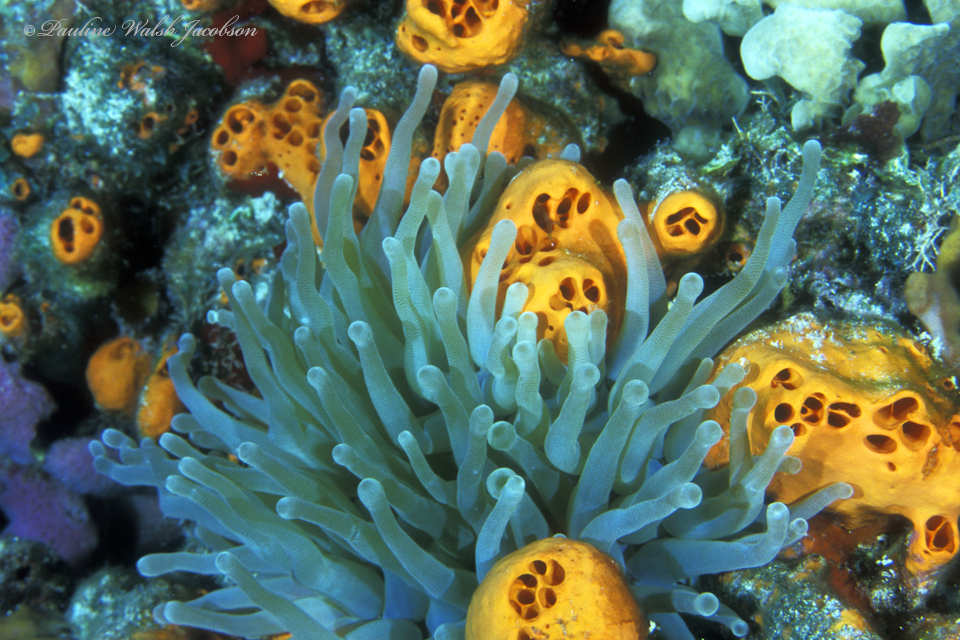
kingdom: Animalia
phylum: Cnidaria
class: Anthozoa
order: Actiniaria
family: Actiniidae
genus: Condylactis
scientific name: Condylactis gigantea
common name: Giant caribbean anemone
